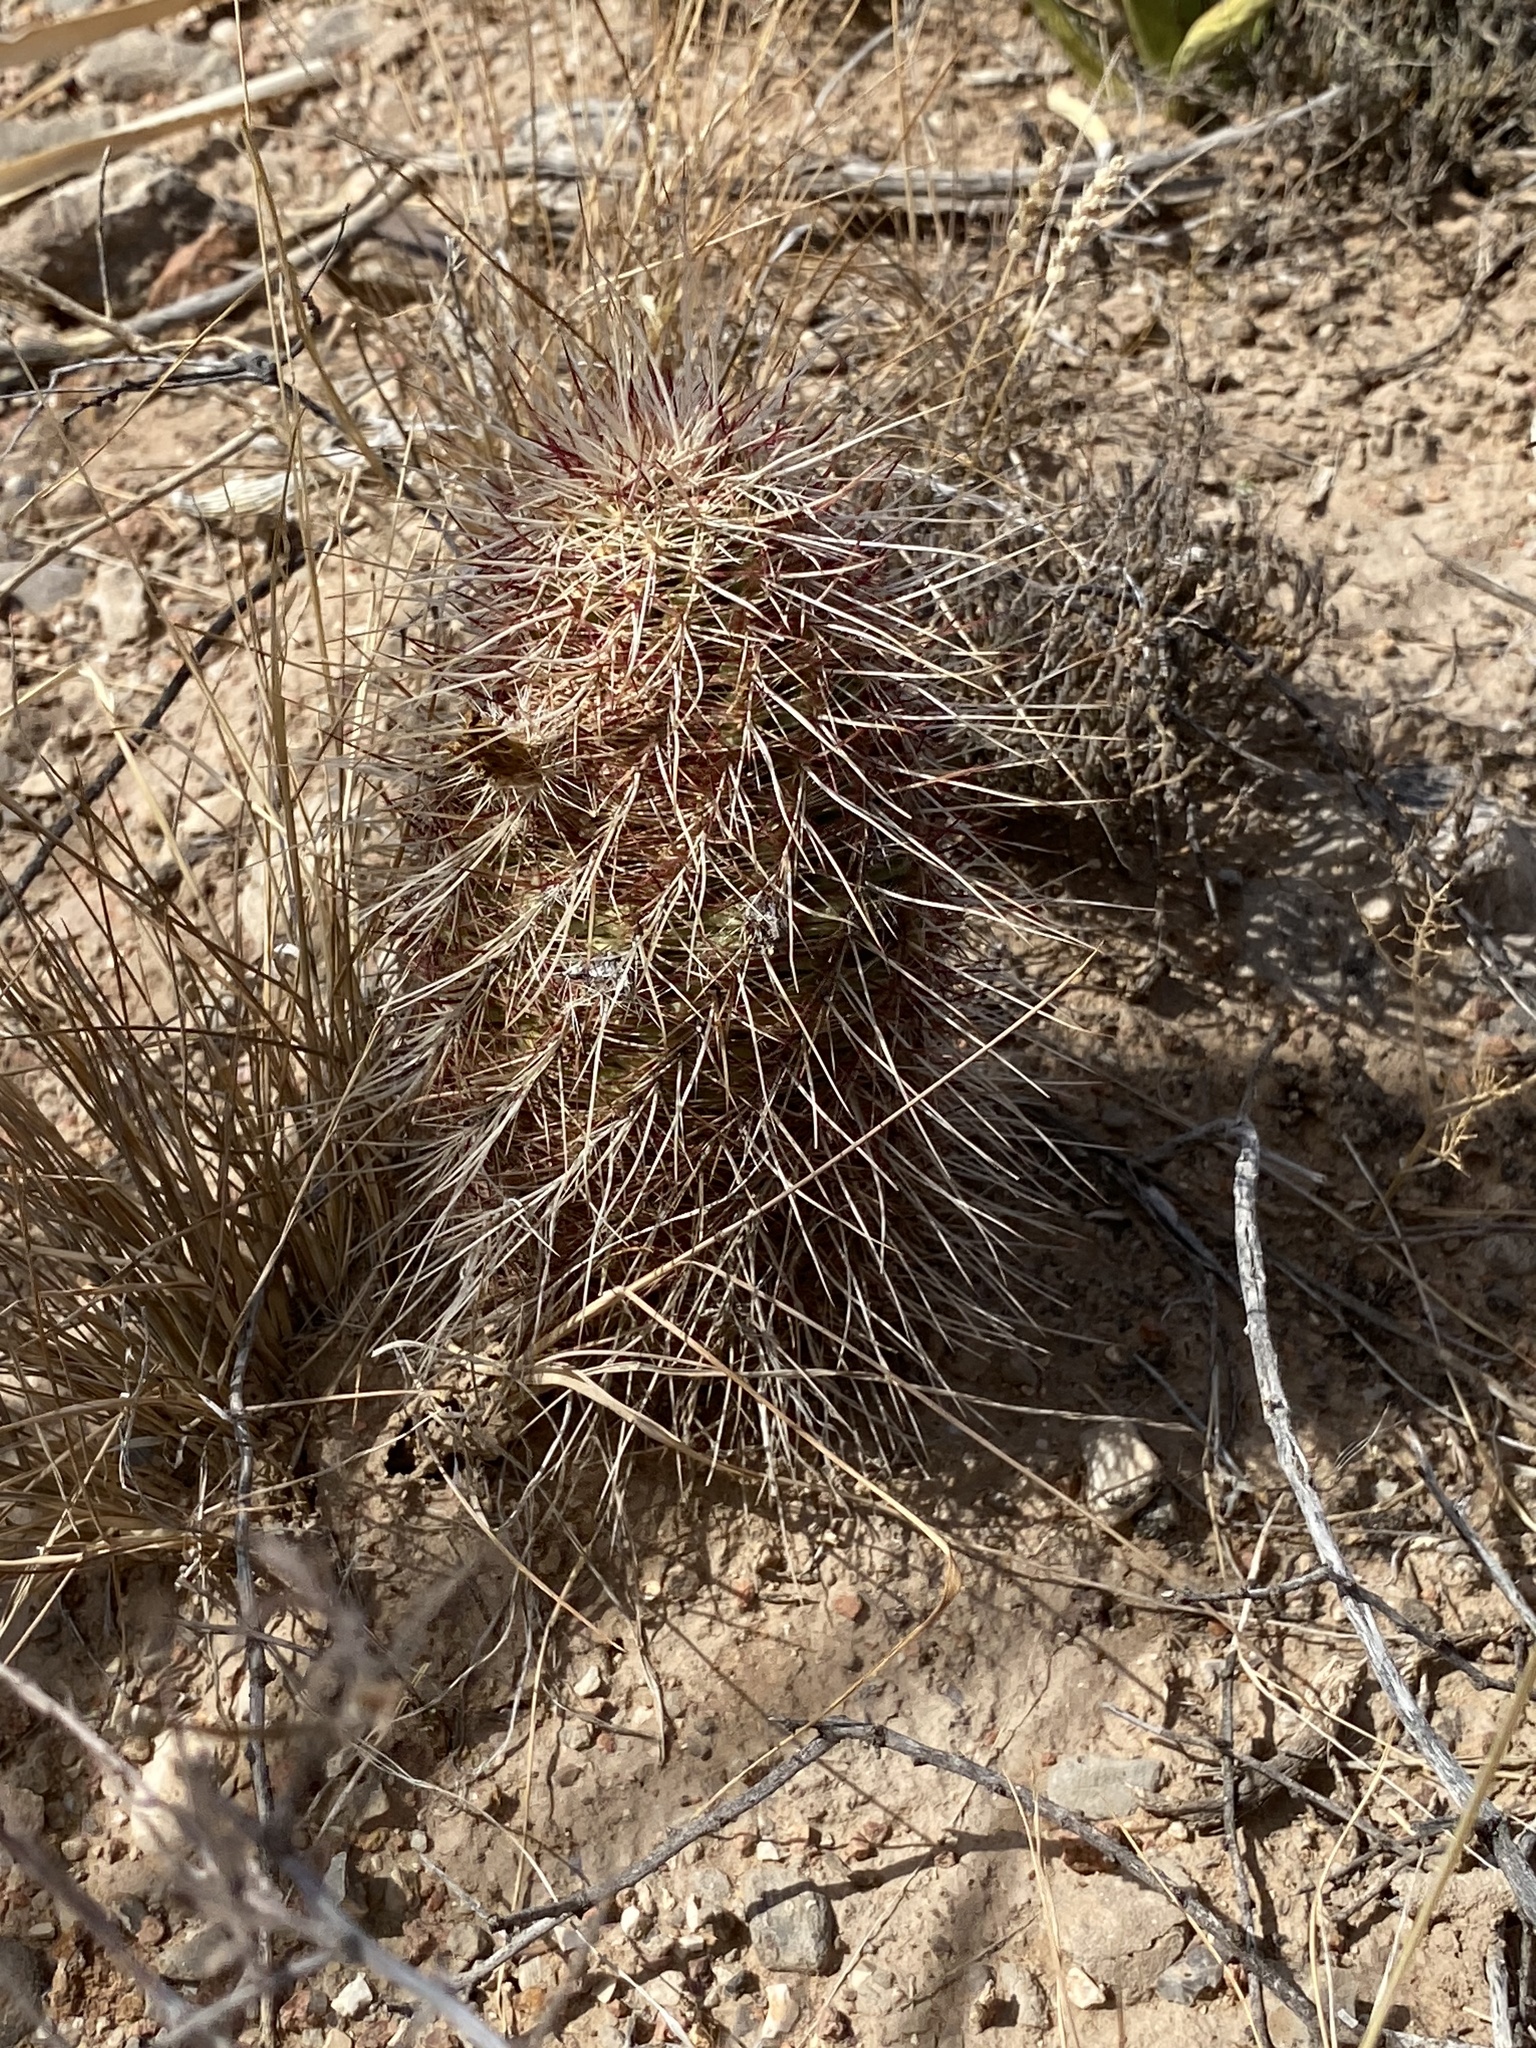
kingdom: Plantae
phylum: Tracheophyta
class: Magnoliopsida
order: Caryophyllales
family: Cactaceae
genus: Echinocereus
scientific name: Echinocereus viridiflorus
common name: Nylon hedgehog cactus
